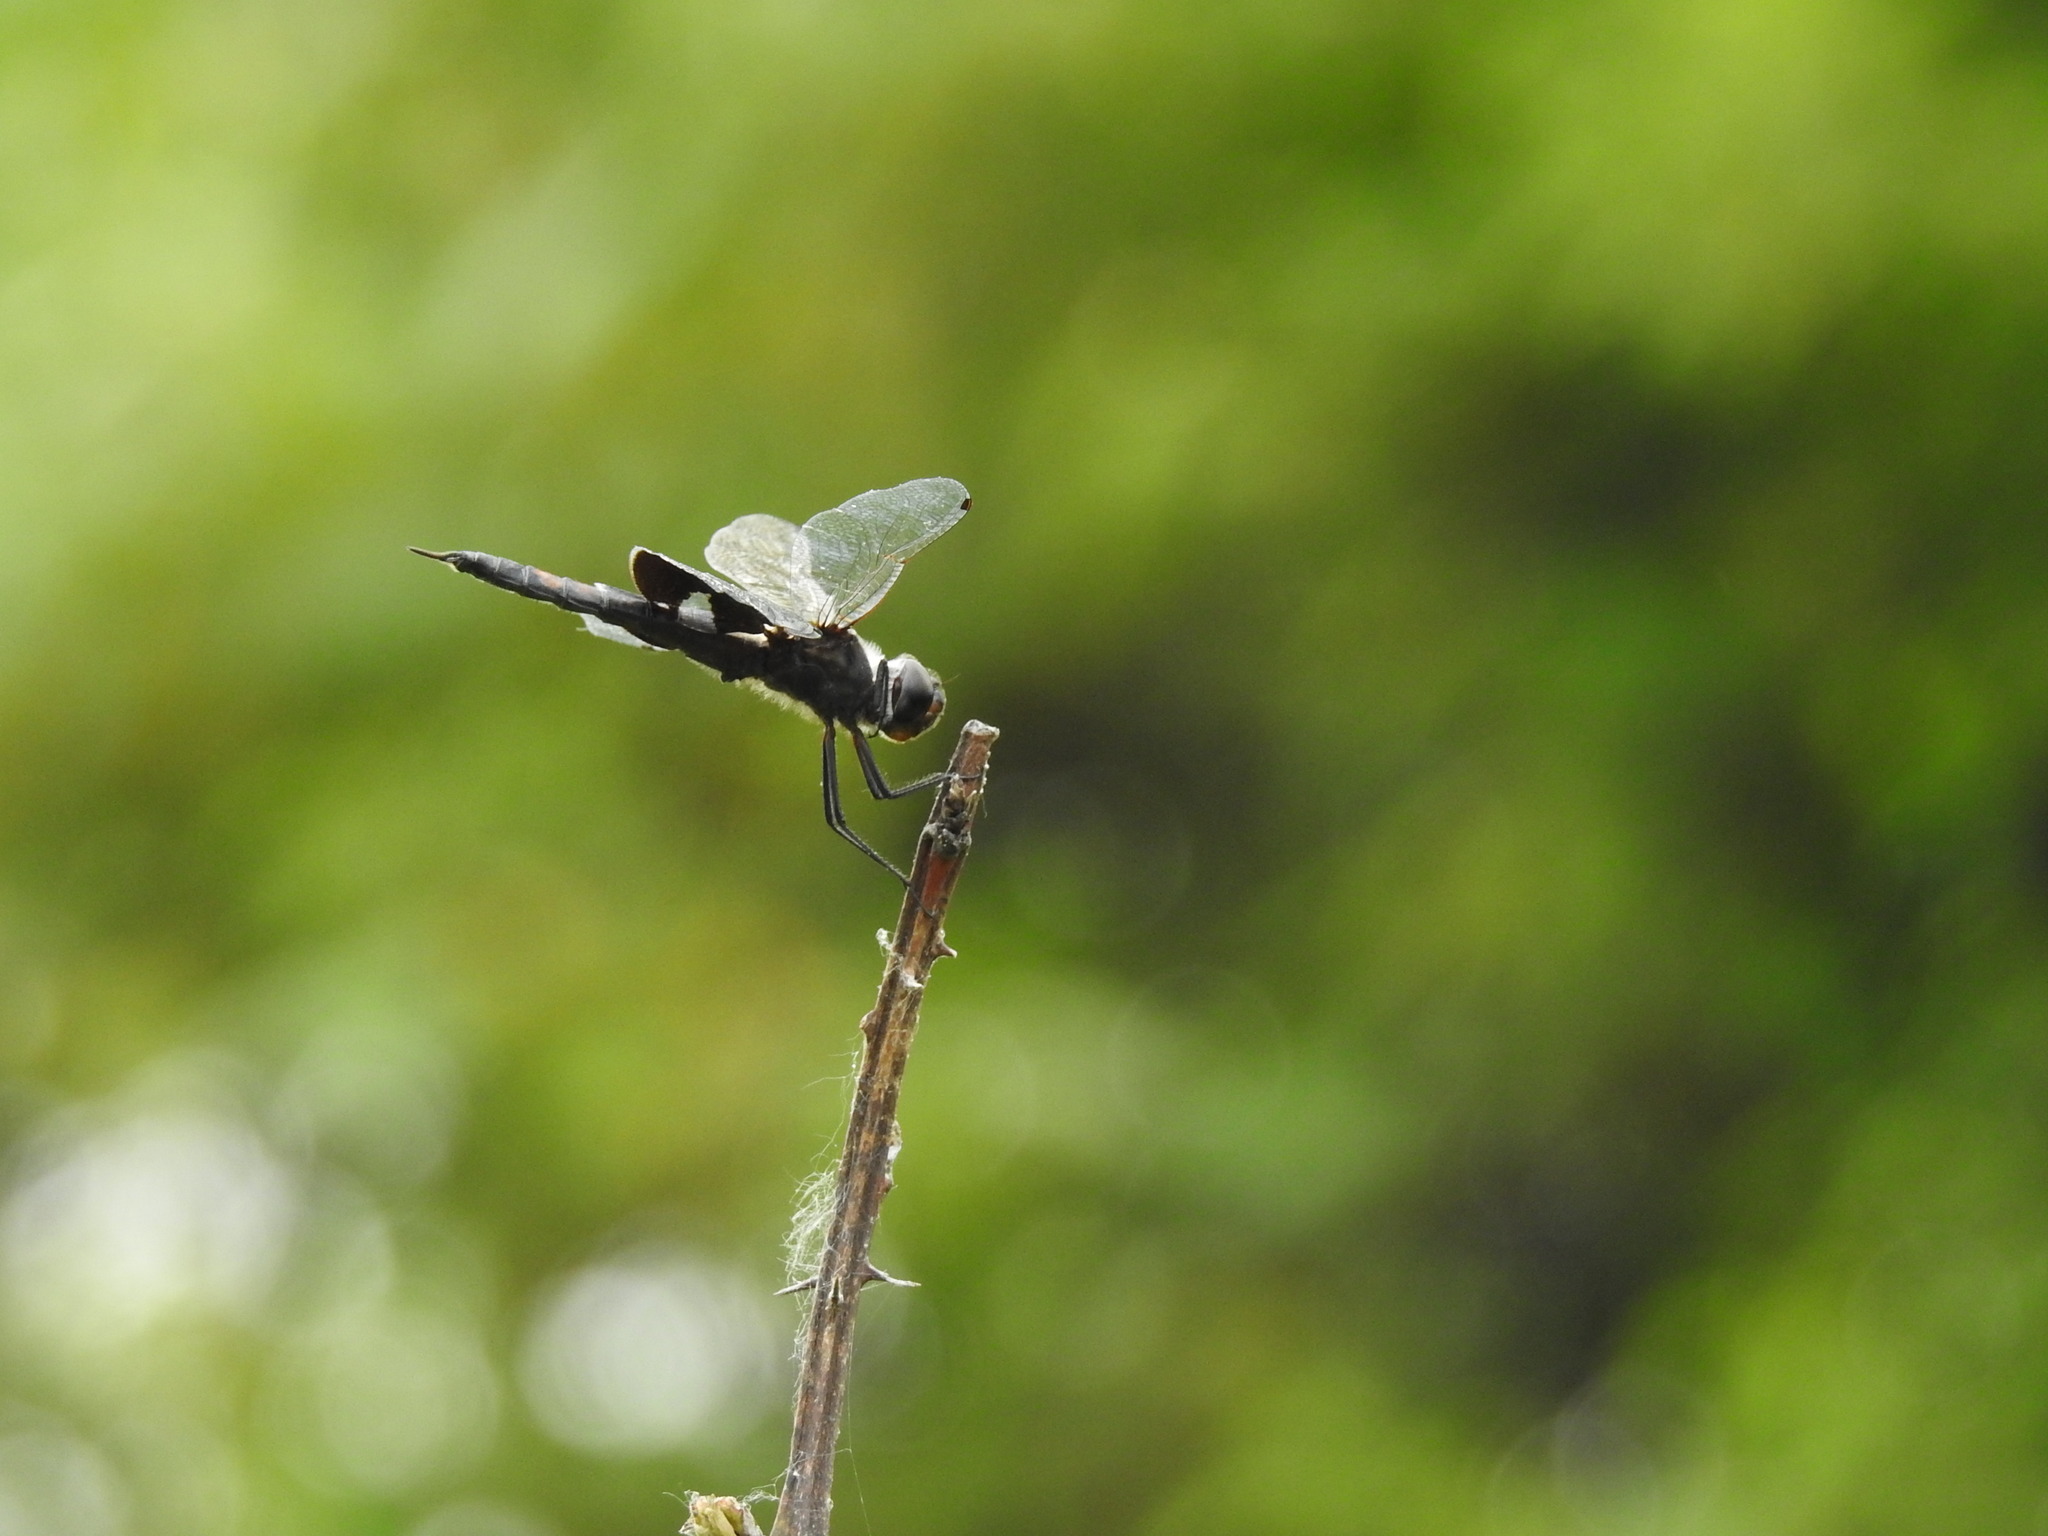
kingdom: Animalia
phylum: Arthropoda
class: Insecta
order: Odonata
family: Libellulidae
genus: Tramea
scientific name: Tramea lacerata
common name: Black saddlebags
